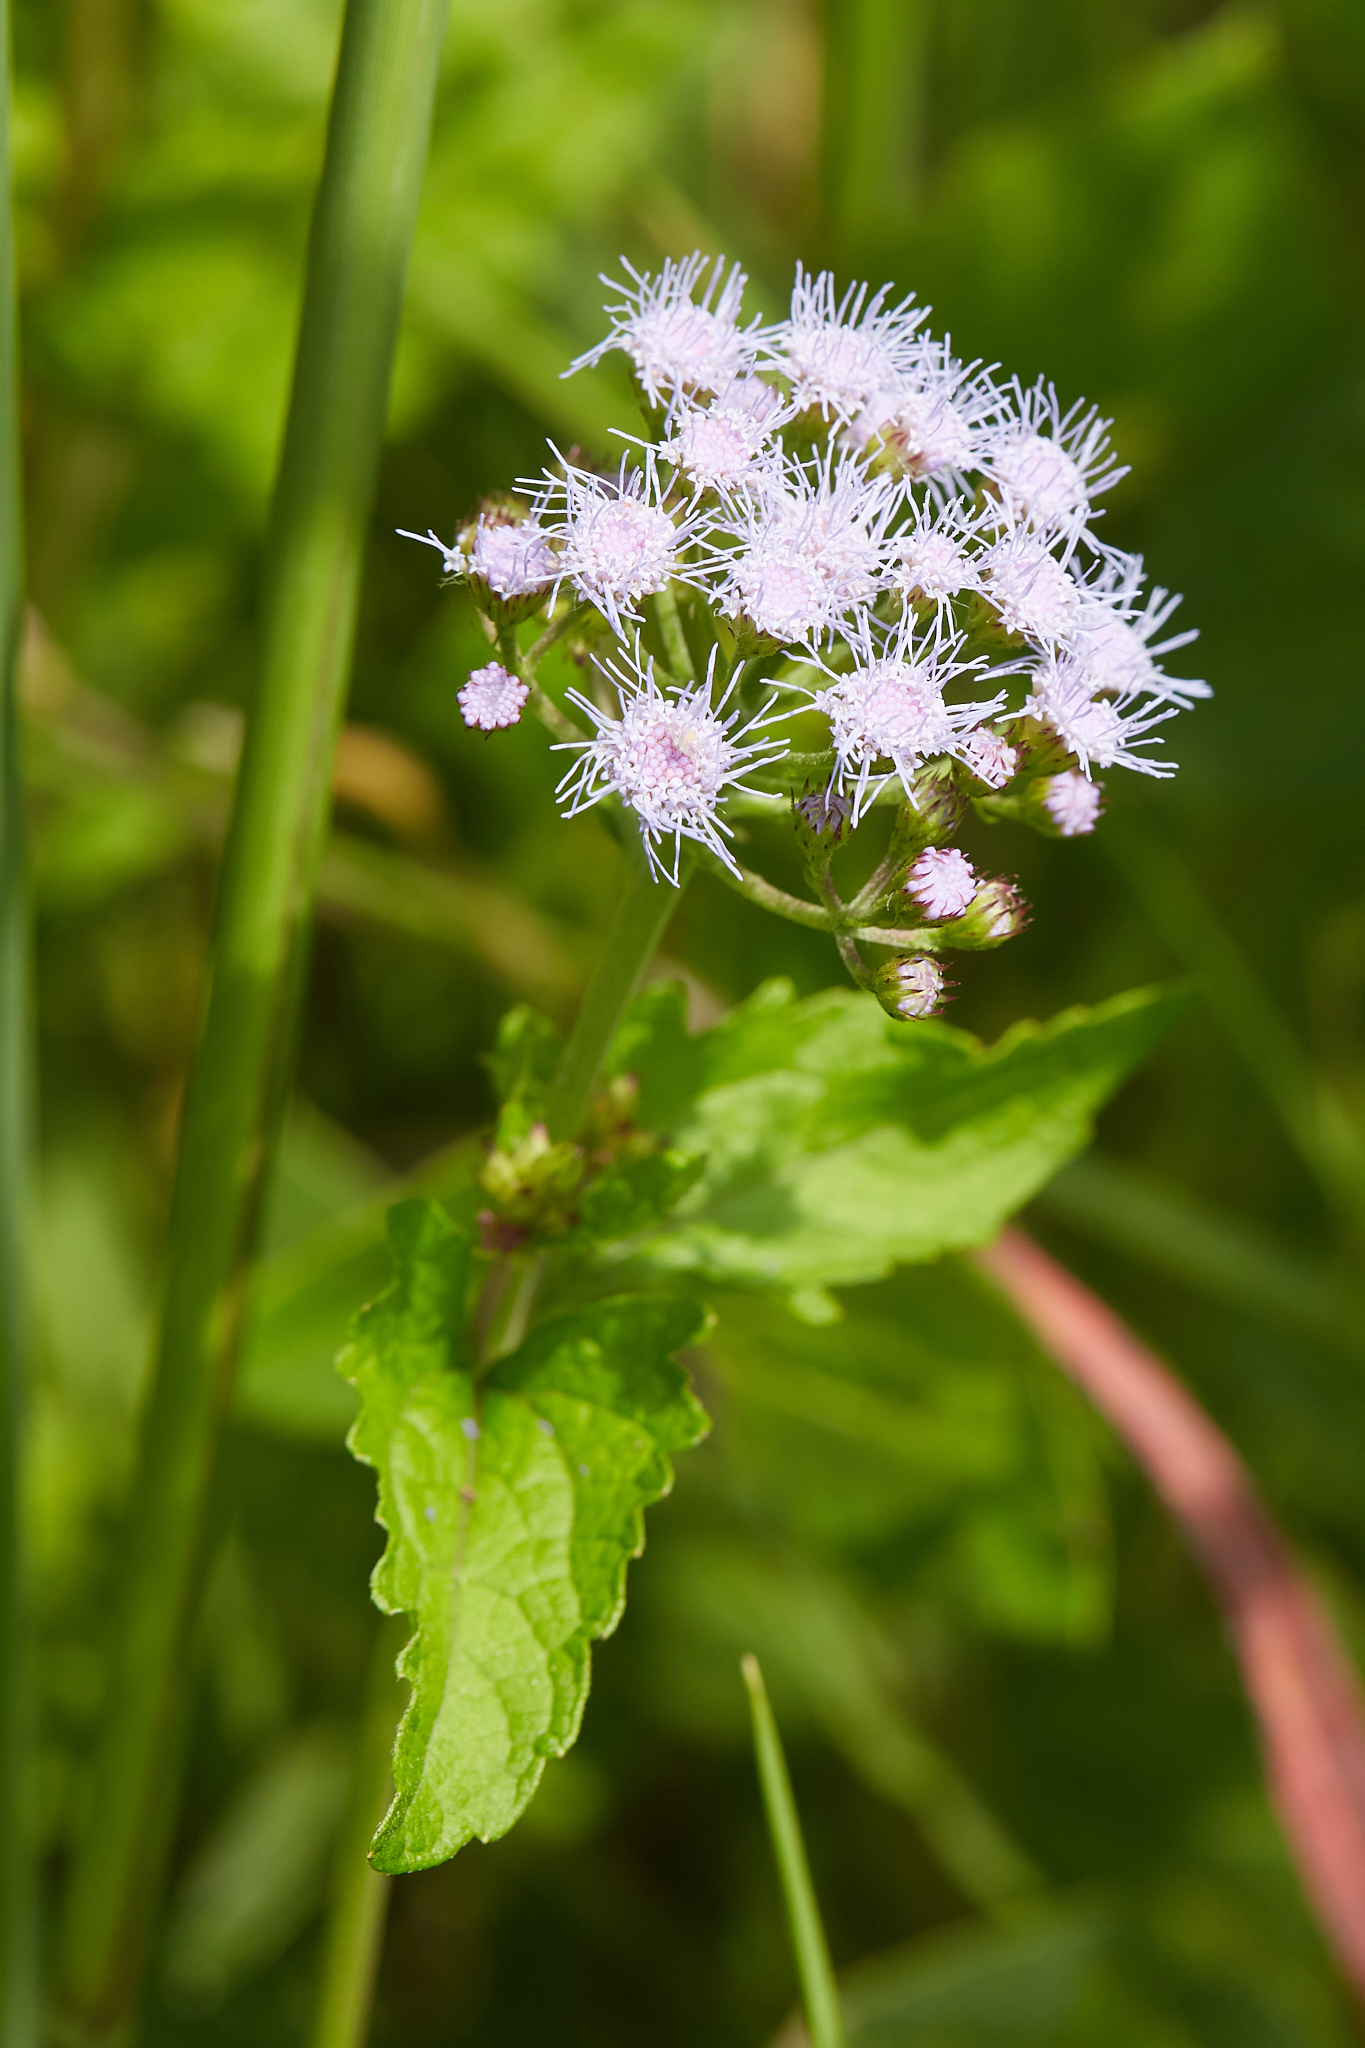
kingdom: Plantae
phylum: Tracheophyta
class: Magnoliopsida
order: Asterales
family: Asteraceae
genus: Conoclinium
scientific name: Conoclinium coelestinum
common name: Blue mistflower
